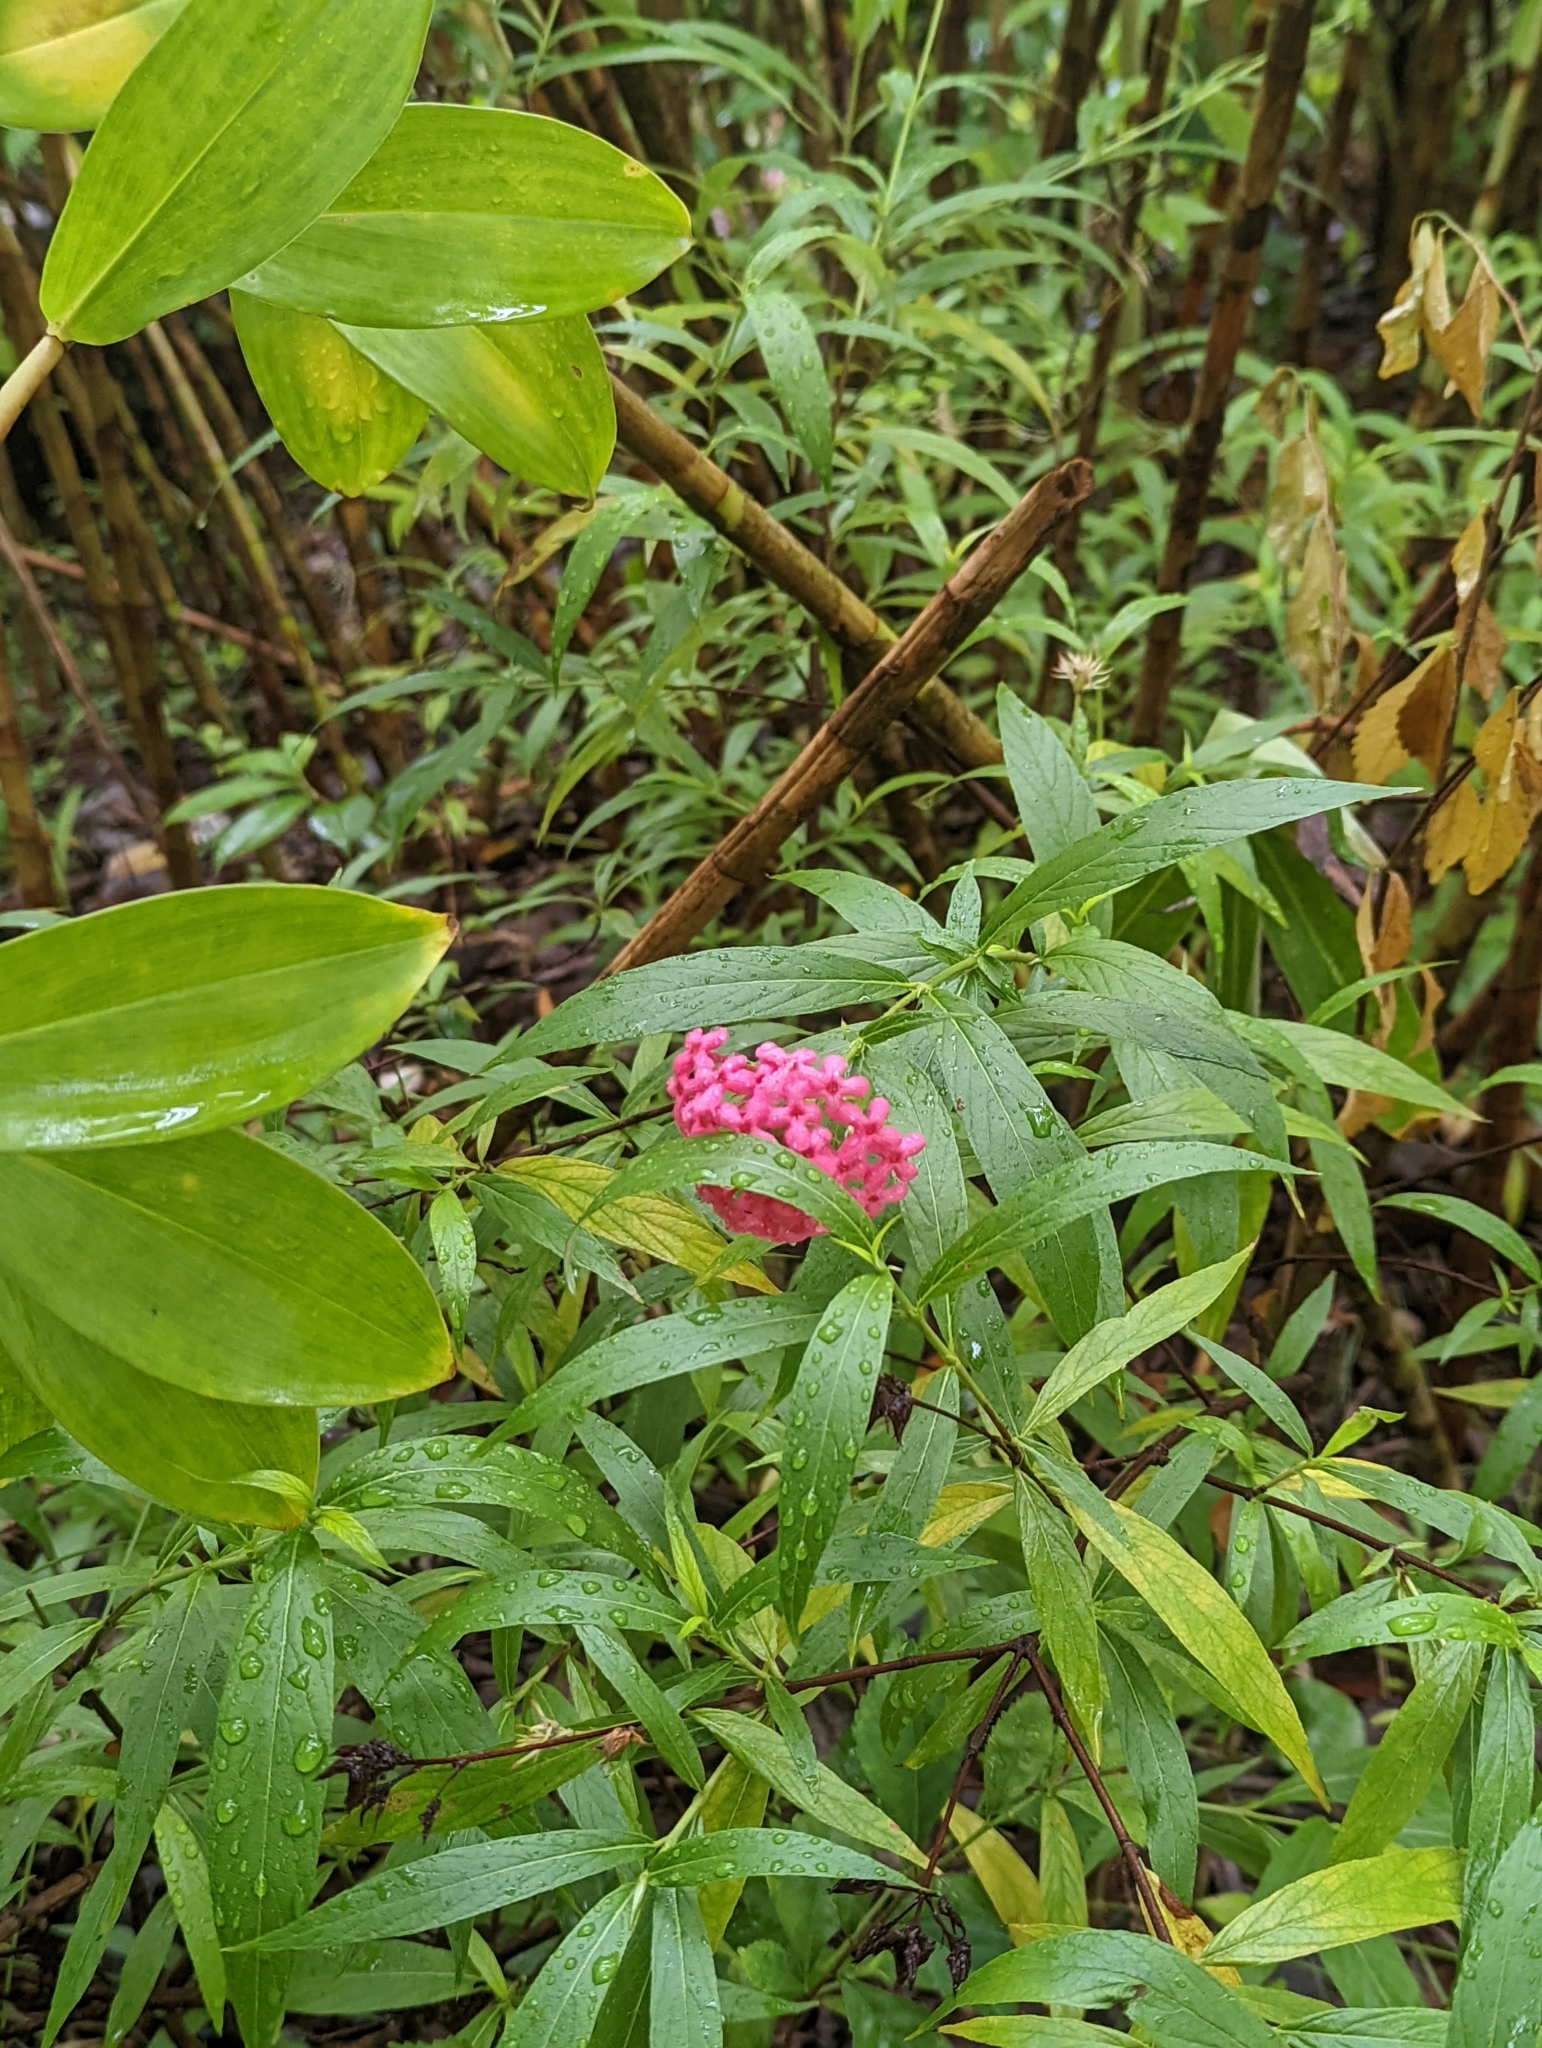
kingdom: Plantae
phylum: Tracheophyta
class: Magnoliopsida
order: Gentianales
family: Rubiaceae
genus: Arachnothryx
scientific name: Arachnothryx leucophylla
